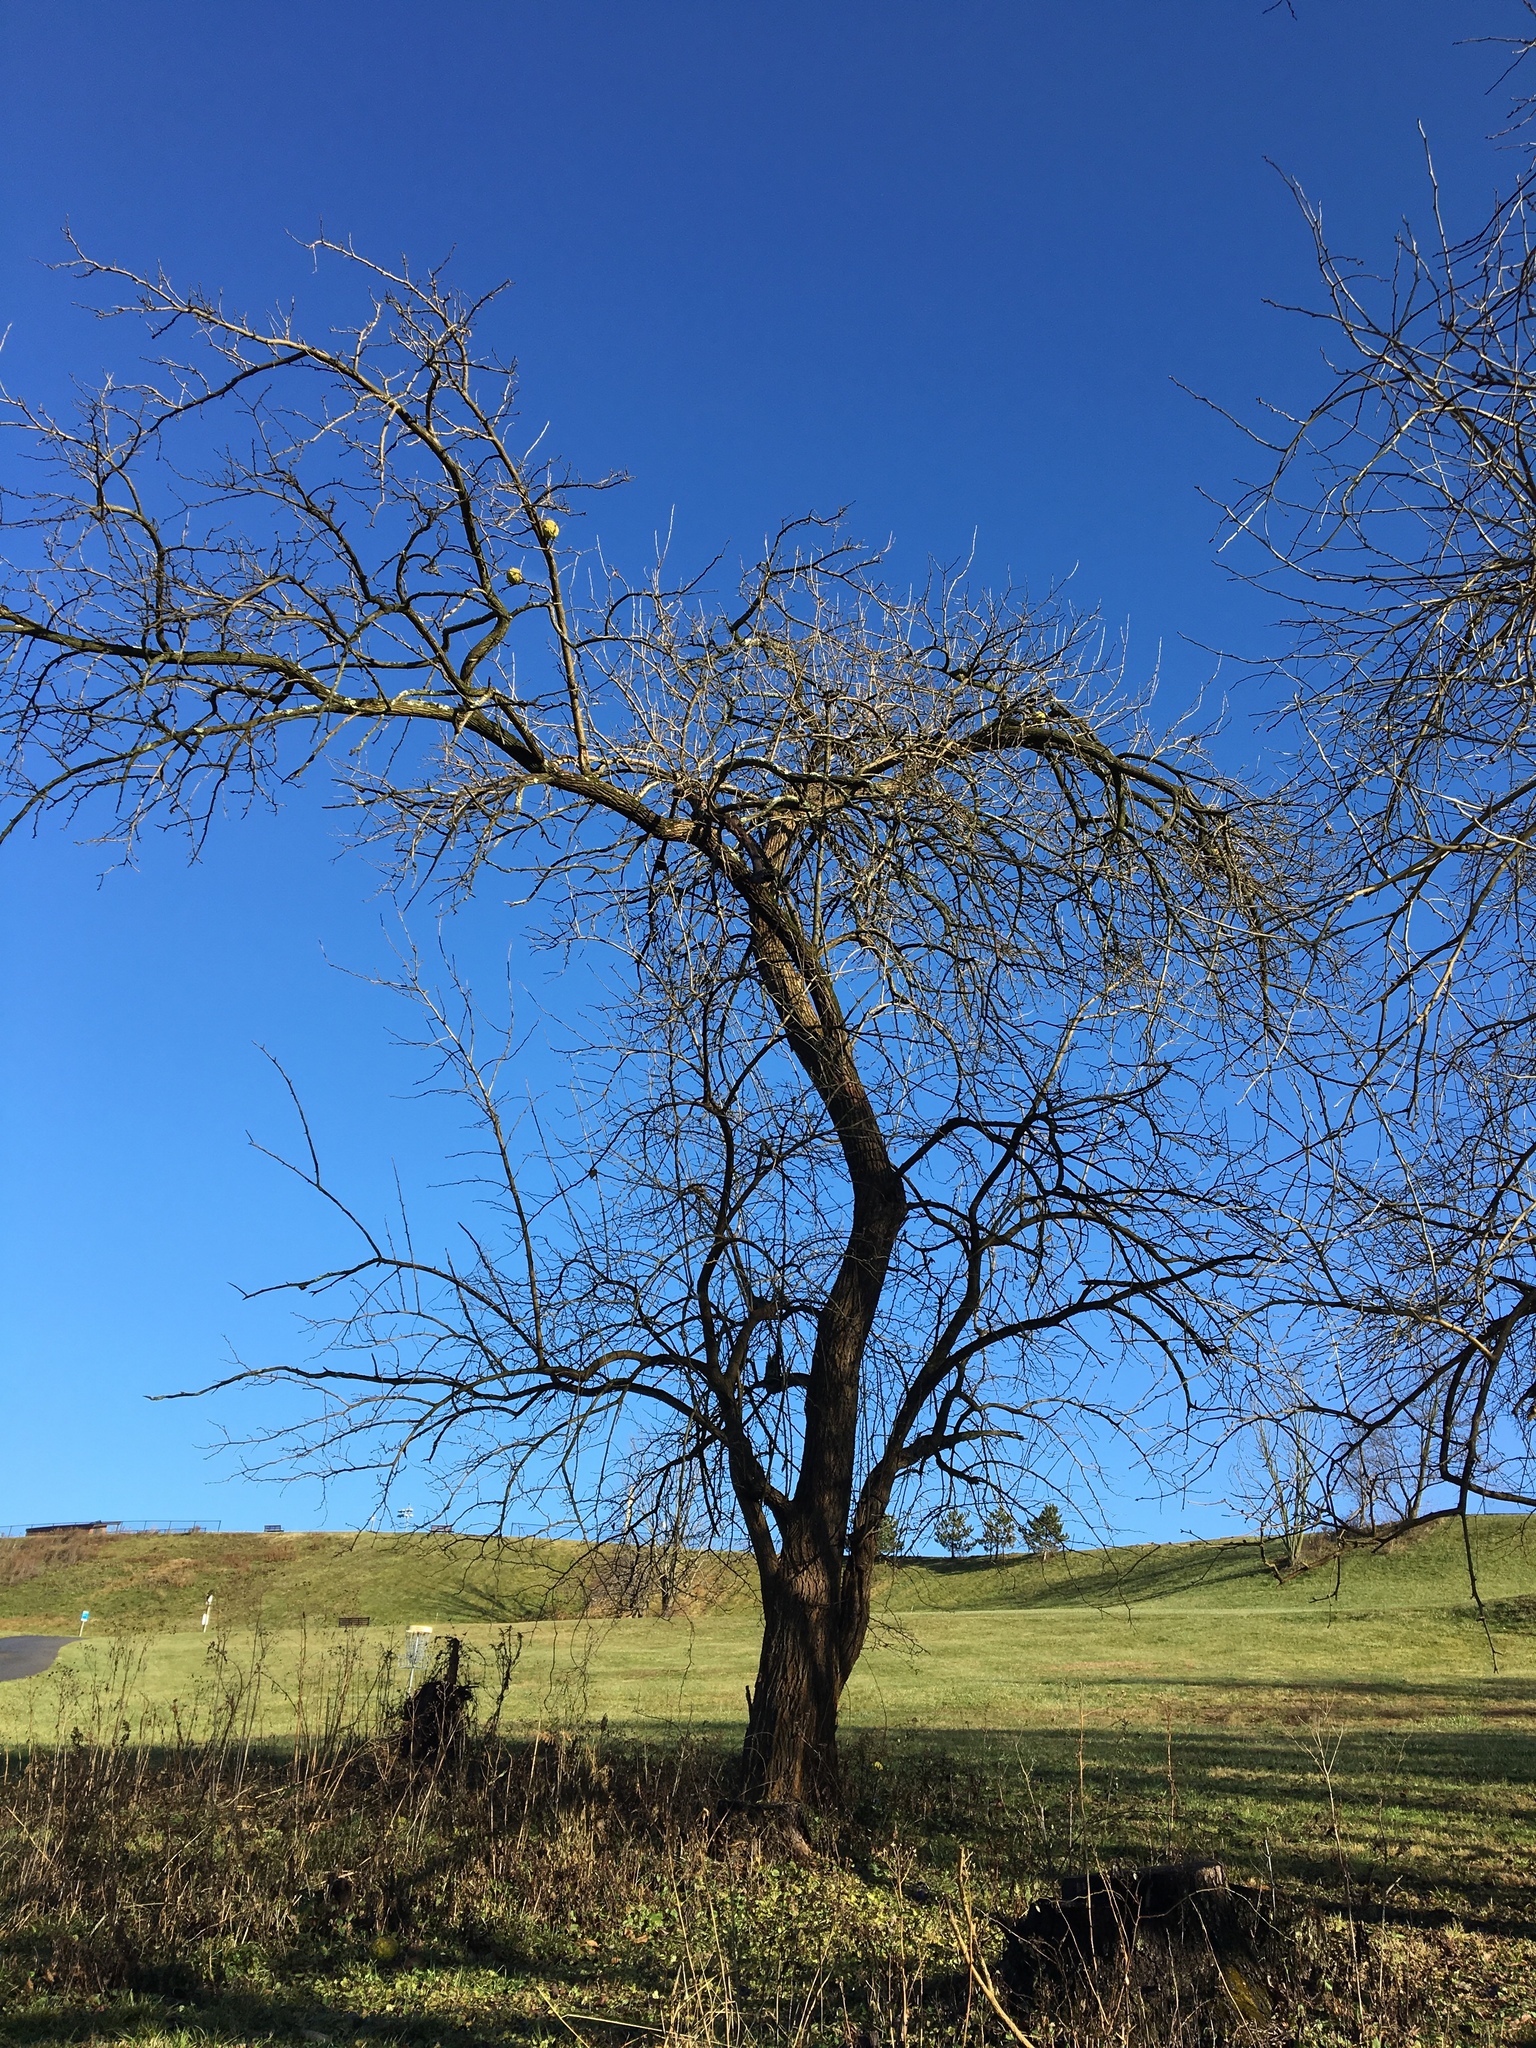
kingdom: Plantae
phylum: Tracheophyta
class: Magnoliopsida
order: Rosales
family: Moraceae
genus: Maclura
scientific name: Maclura pomifera
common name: Osage-orange
